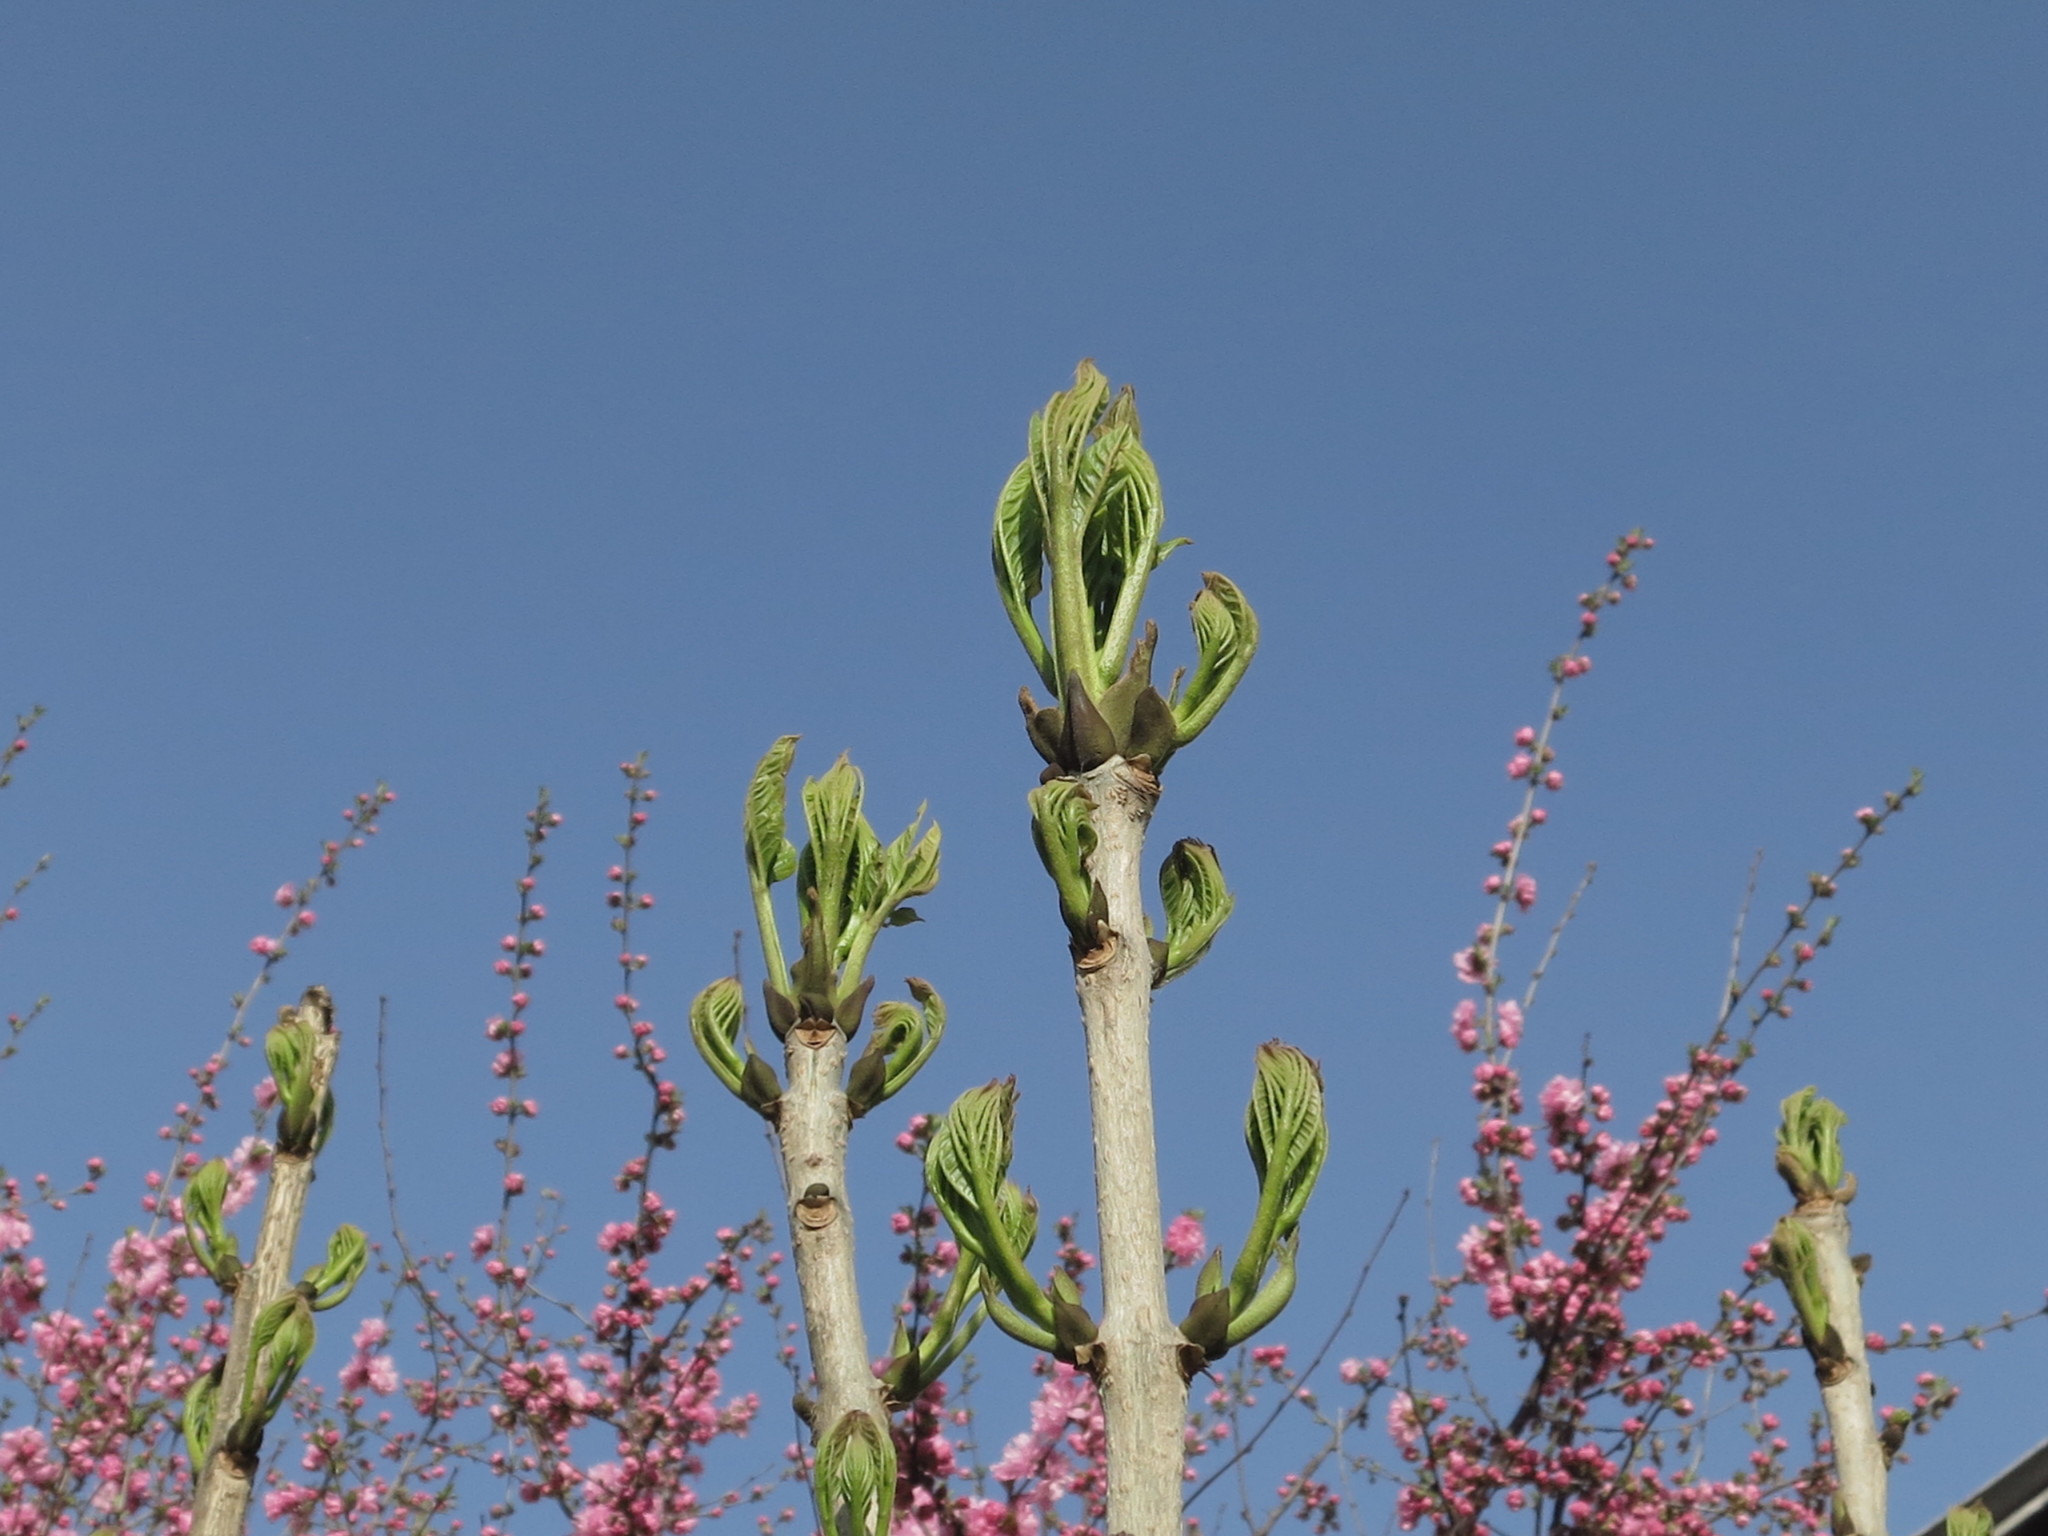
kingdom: Plantae
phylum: Tracheophyta
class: Magnoliopsida
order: Lamiales
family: Oleaceae
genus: Fraxinus
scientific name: Fraxinus mandshurica
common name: Manchurian ash
